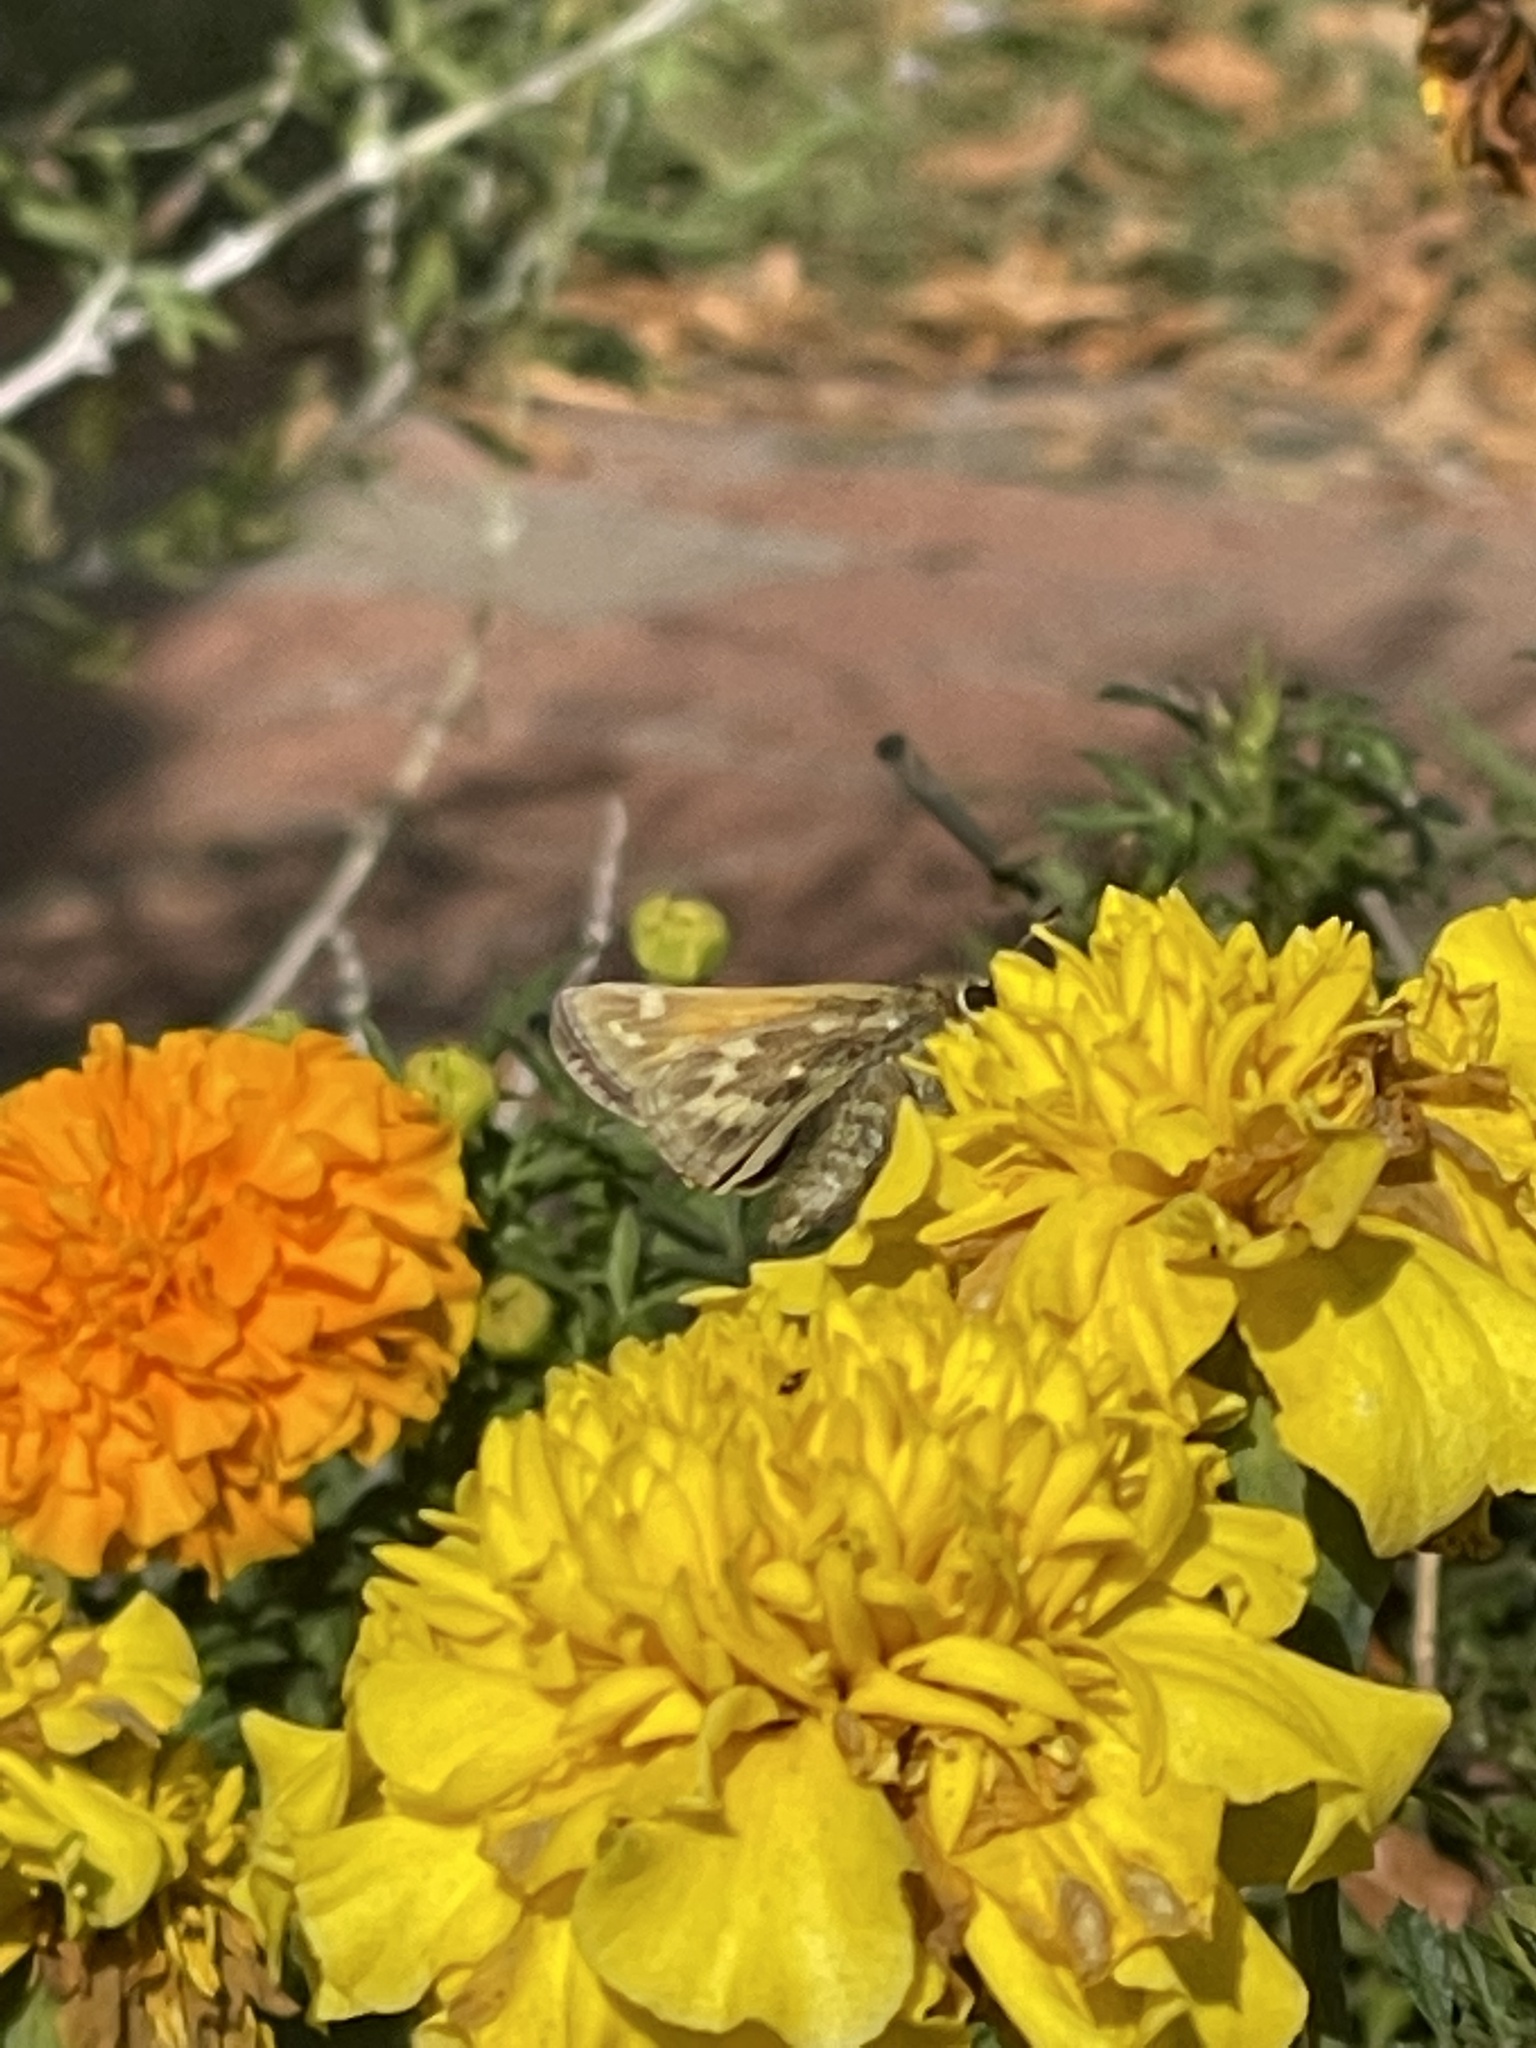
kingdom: Animalia
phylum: Arthropoda
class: Insecta
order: Lepidoptera
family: Hesperiidae
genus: Atalopedes
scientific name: Atalopedes
